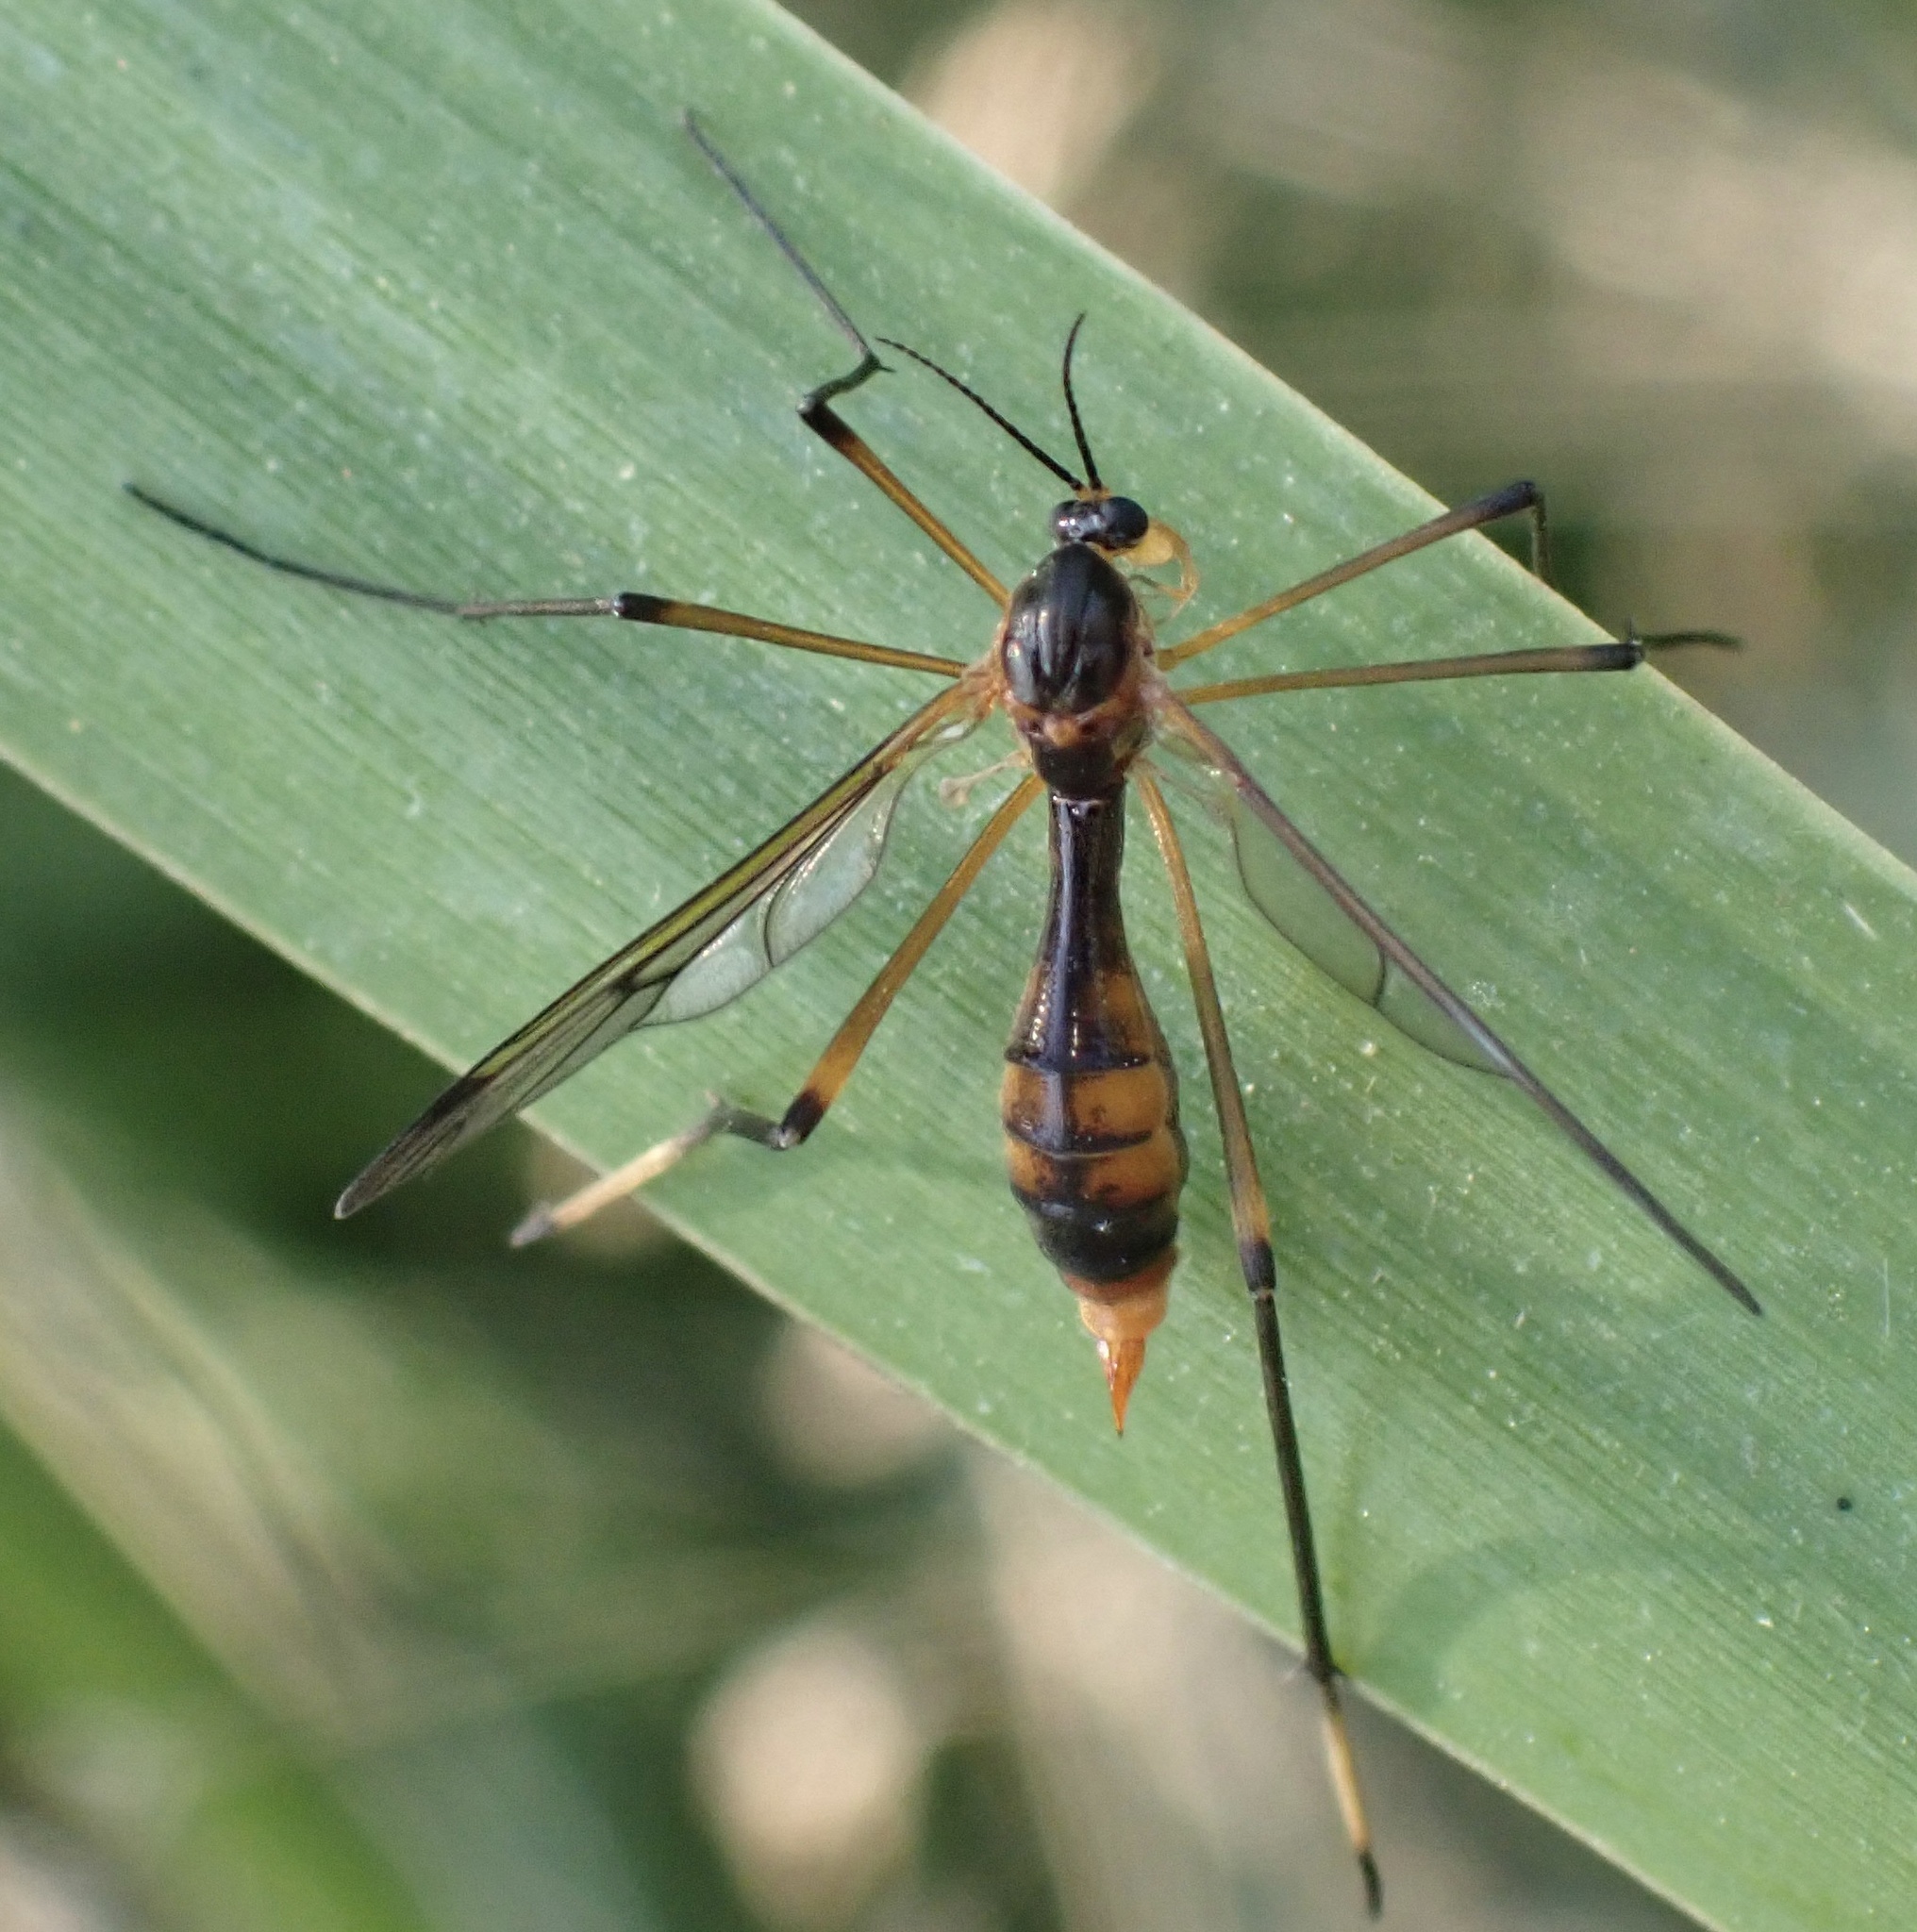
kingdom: Animalia
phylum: Arthropoda
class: Insecta
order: Diptera
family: Ptychopteridae
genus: Ptychoptera
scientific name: Ptychoptera albimanus
